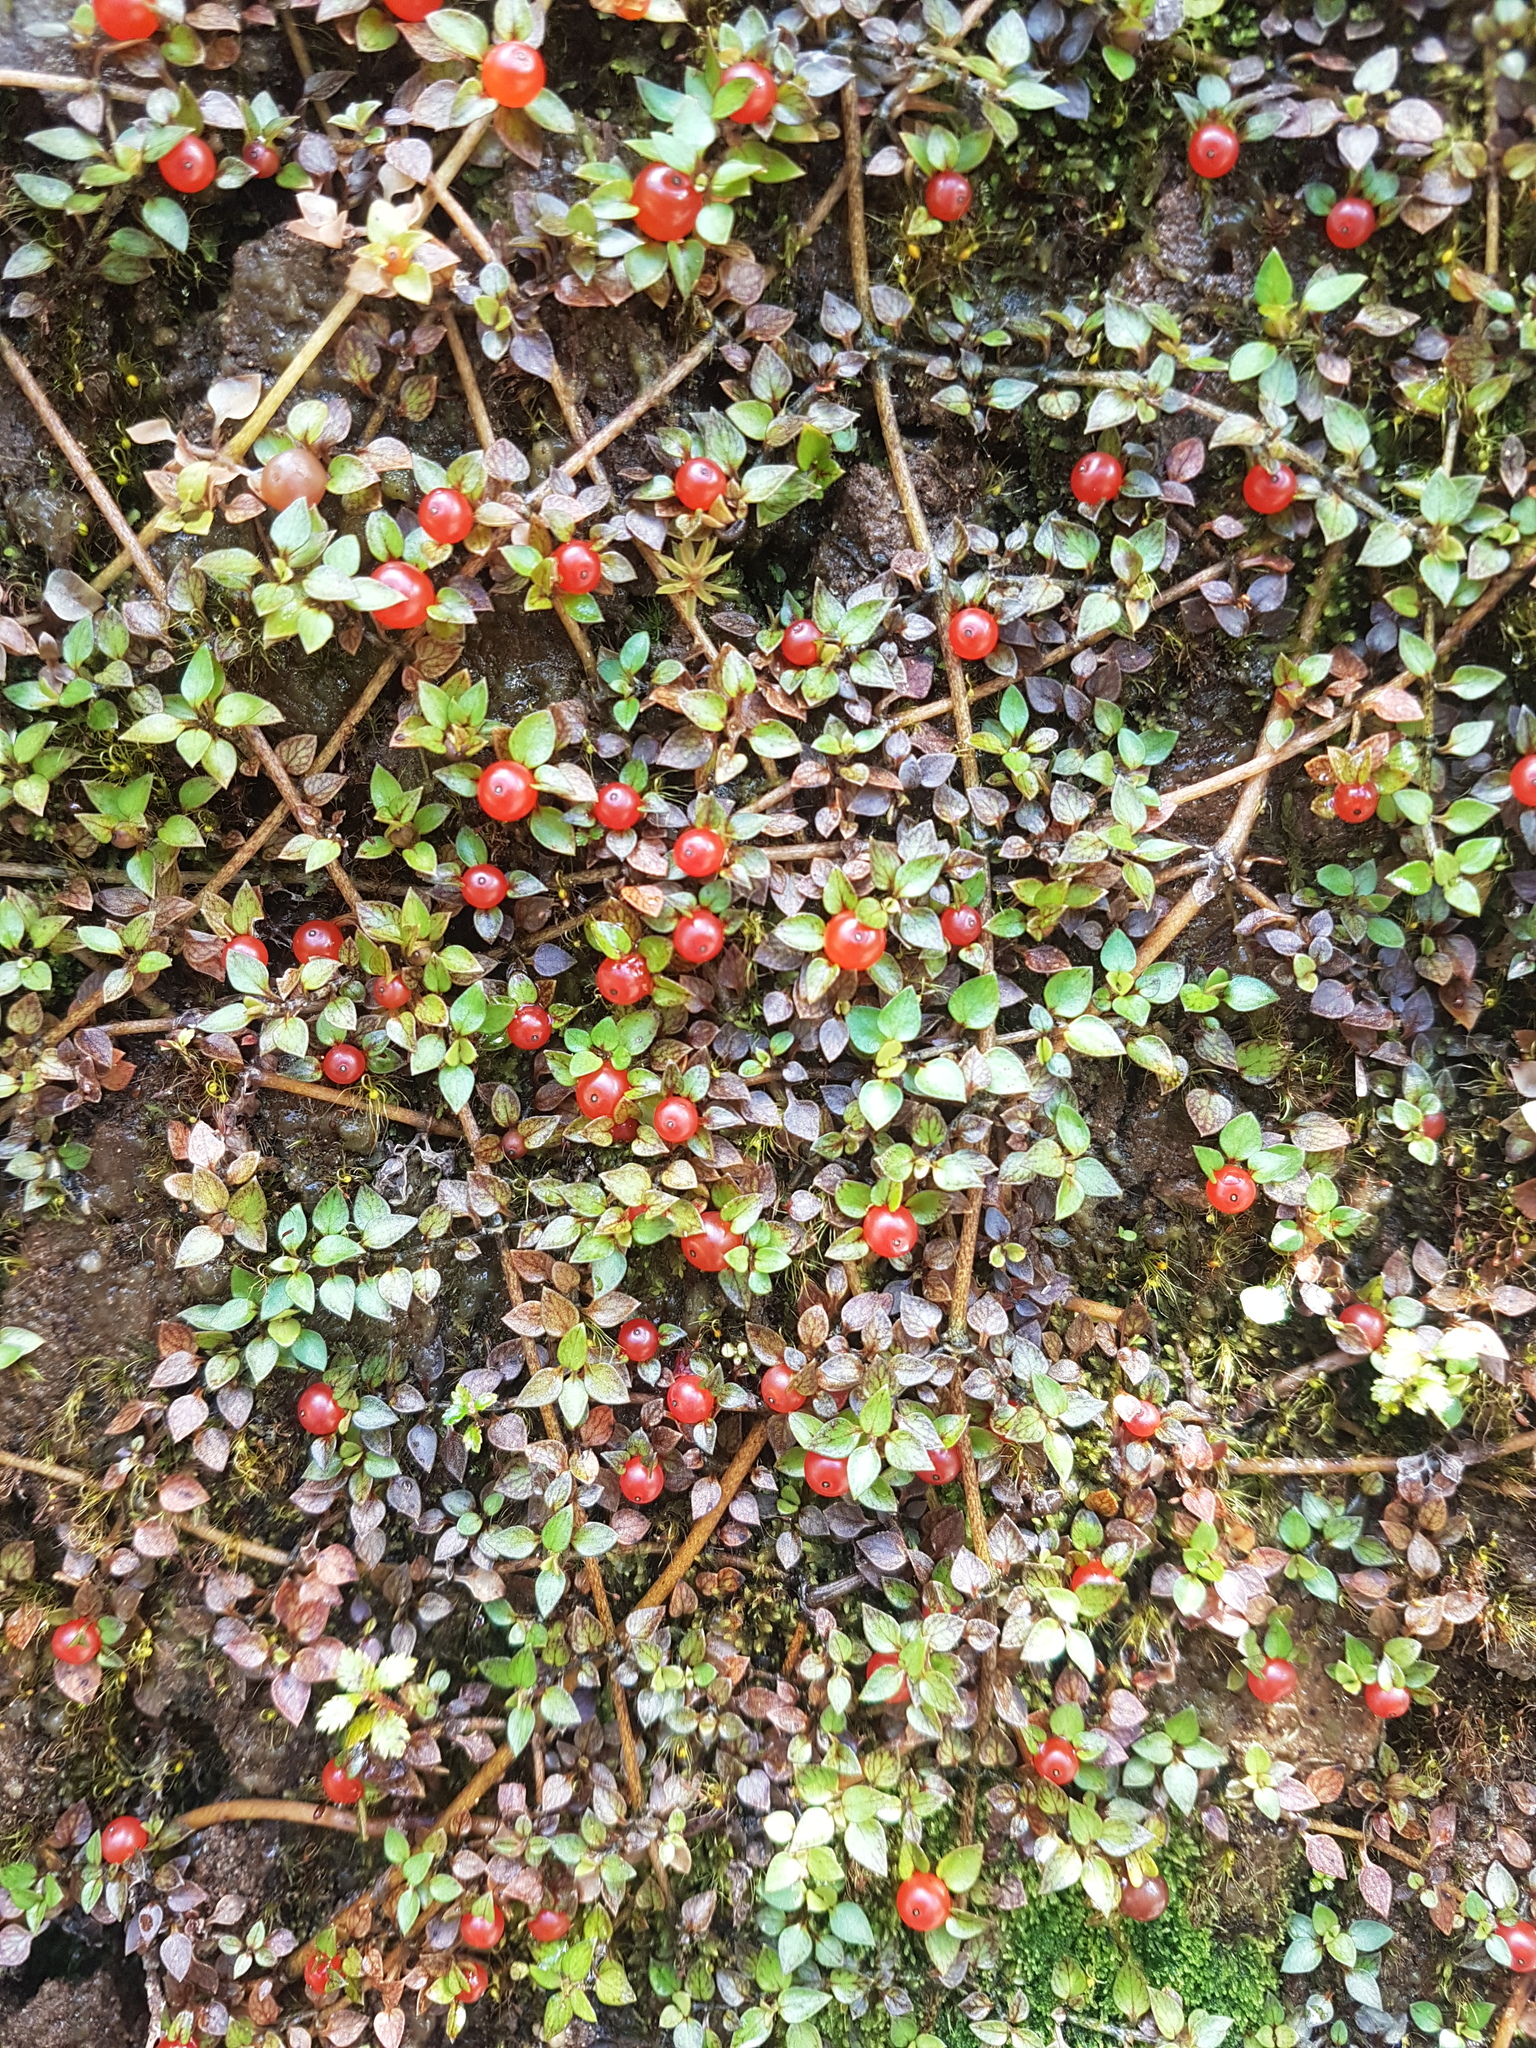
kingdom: Plantae
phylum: Tracheophyta
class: Magnoliopsida
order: Gentianales
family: Rubiaceae
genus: Nertera
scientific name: Nertera granadensis
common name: Beadplant
